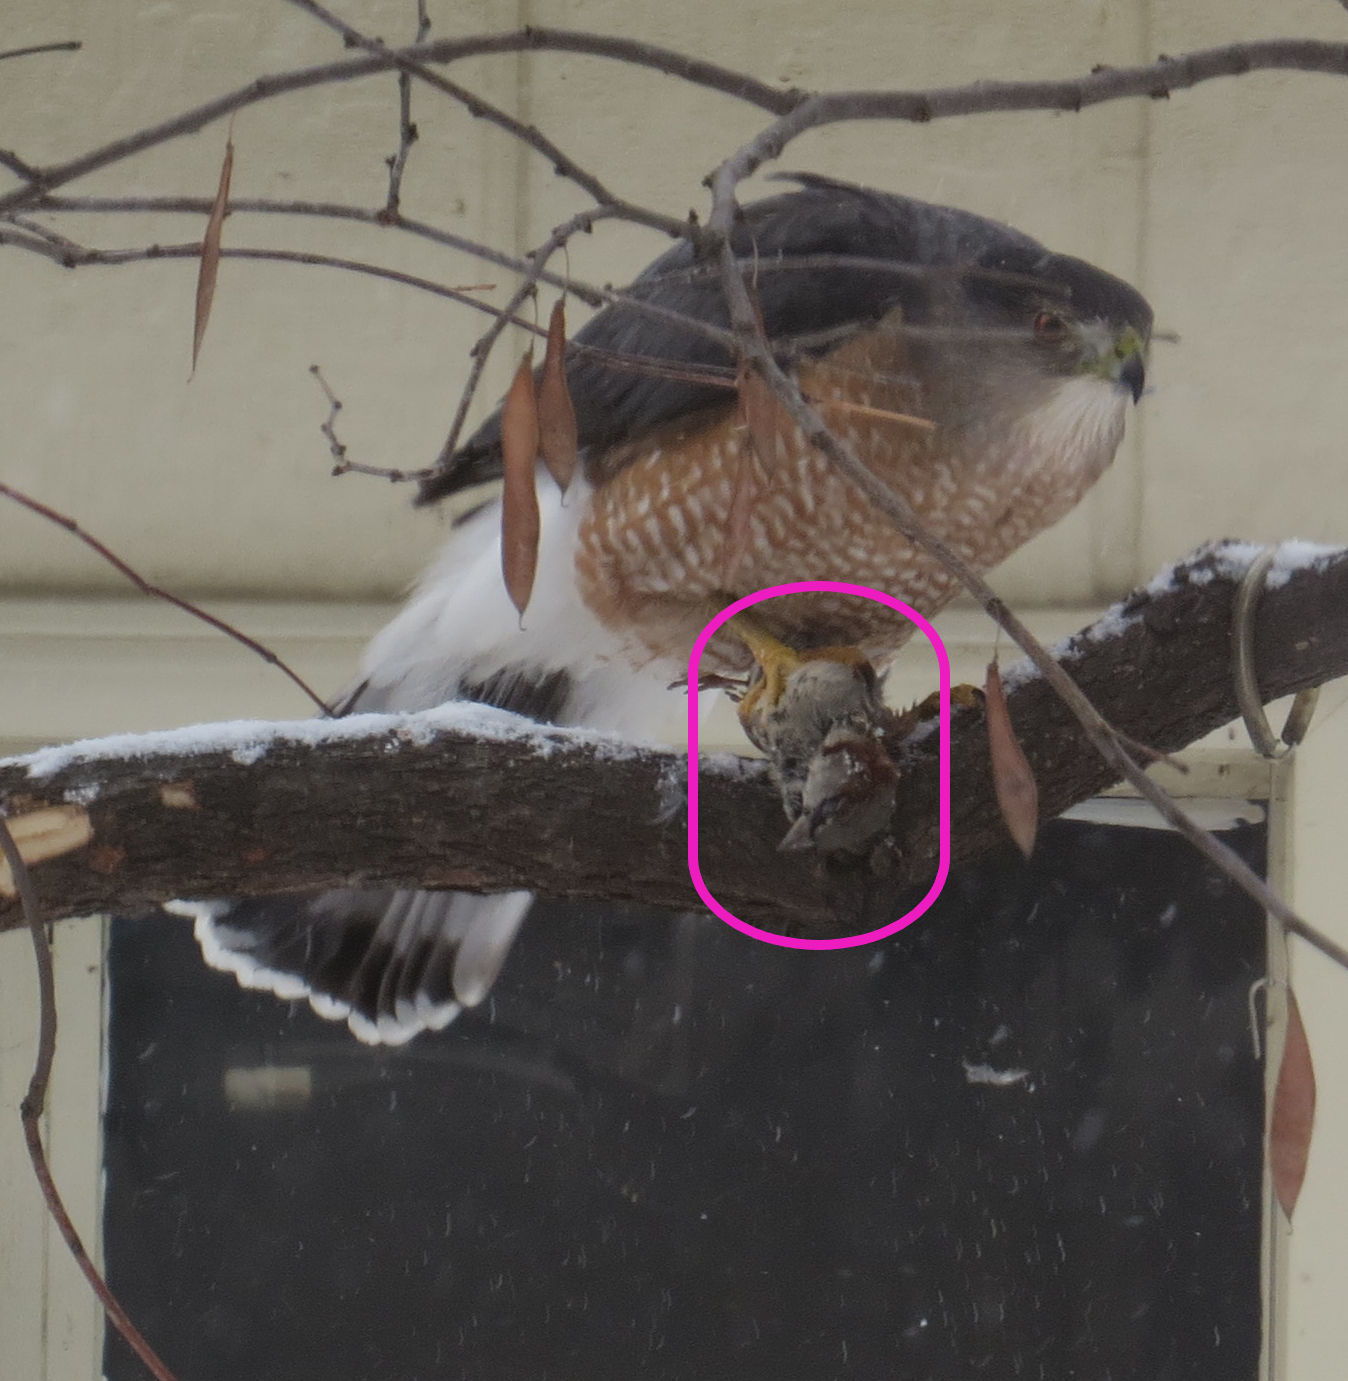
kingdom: Animalia
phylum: Chordata
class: Aves
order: Passeriformes
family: Passeridae
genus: Passer
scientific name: Passer domesticus
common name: House sparrow
